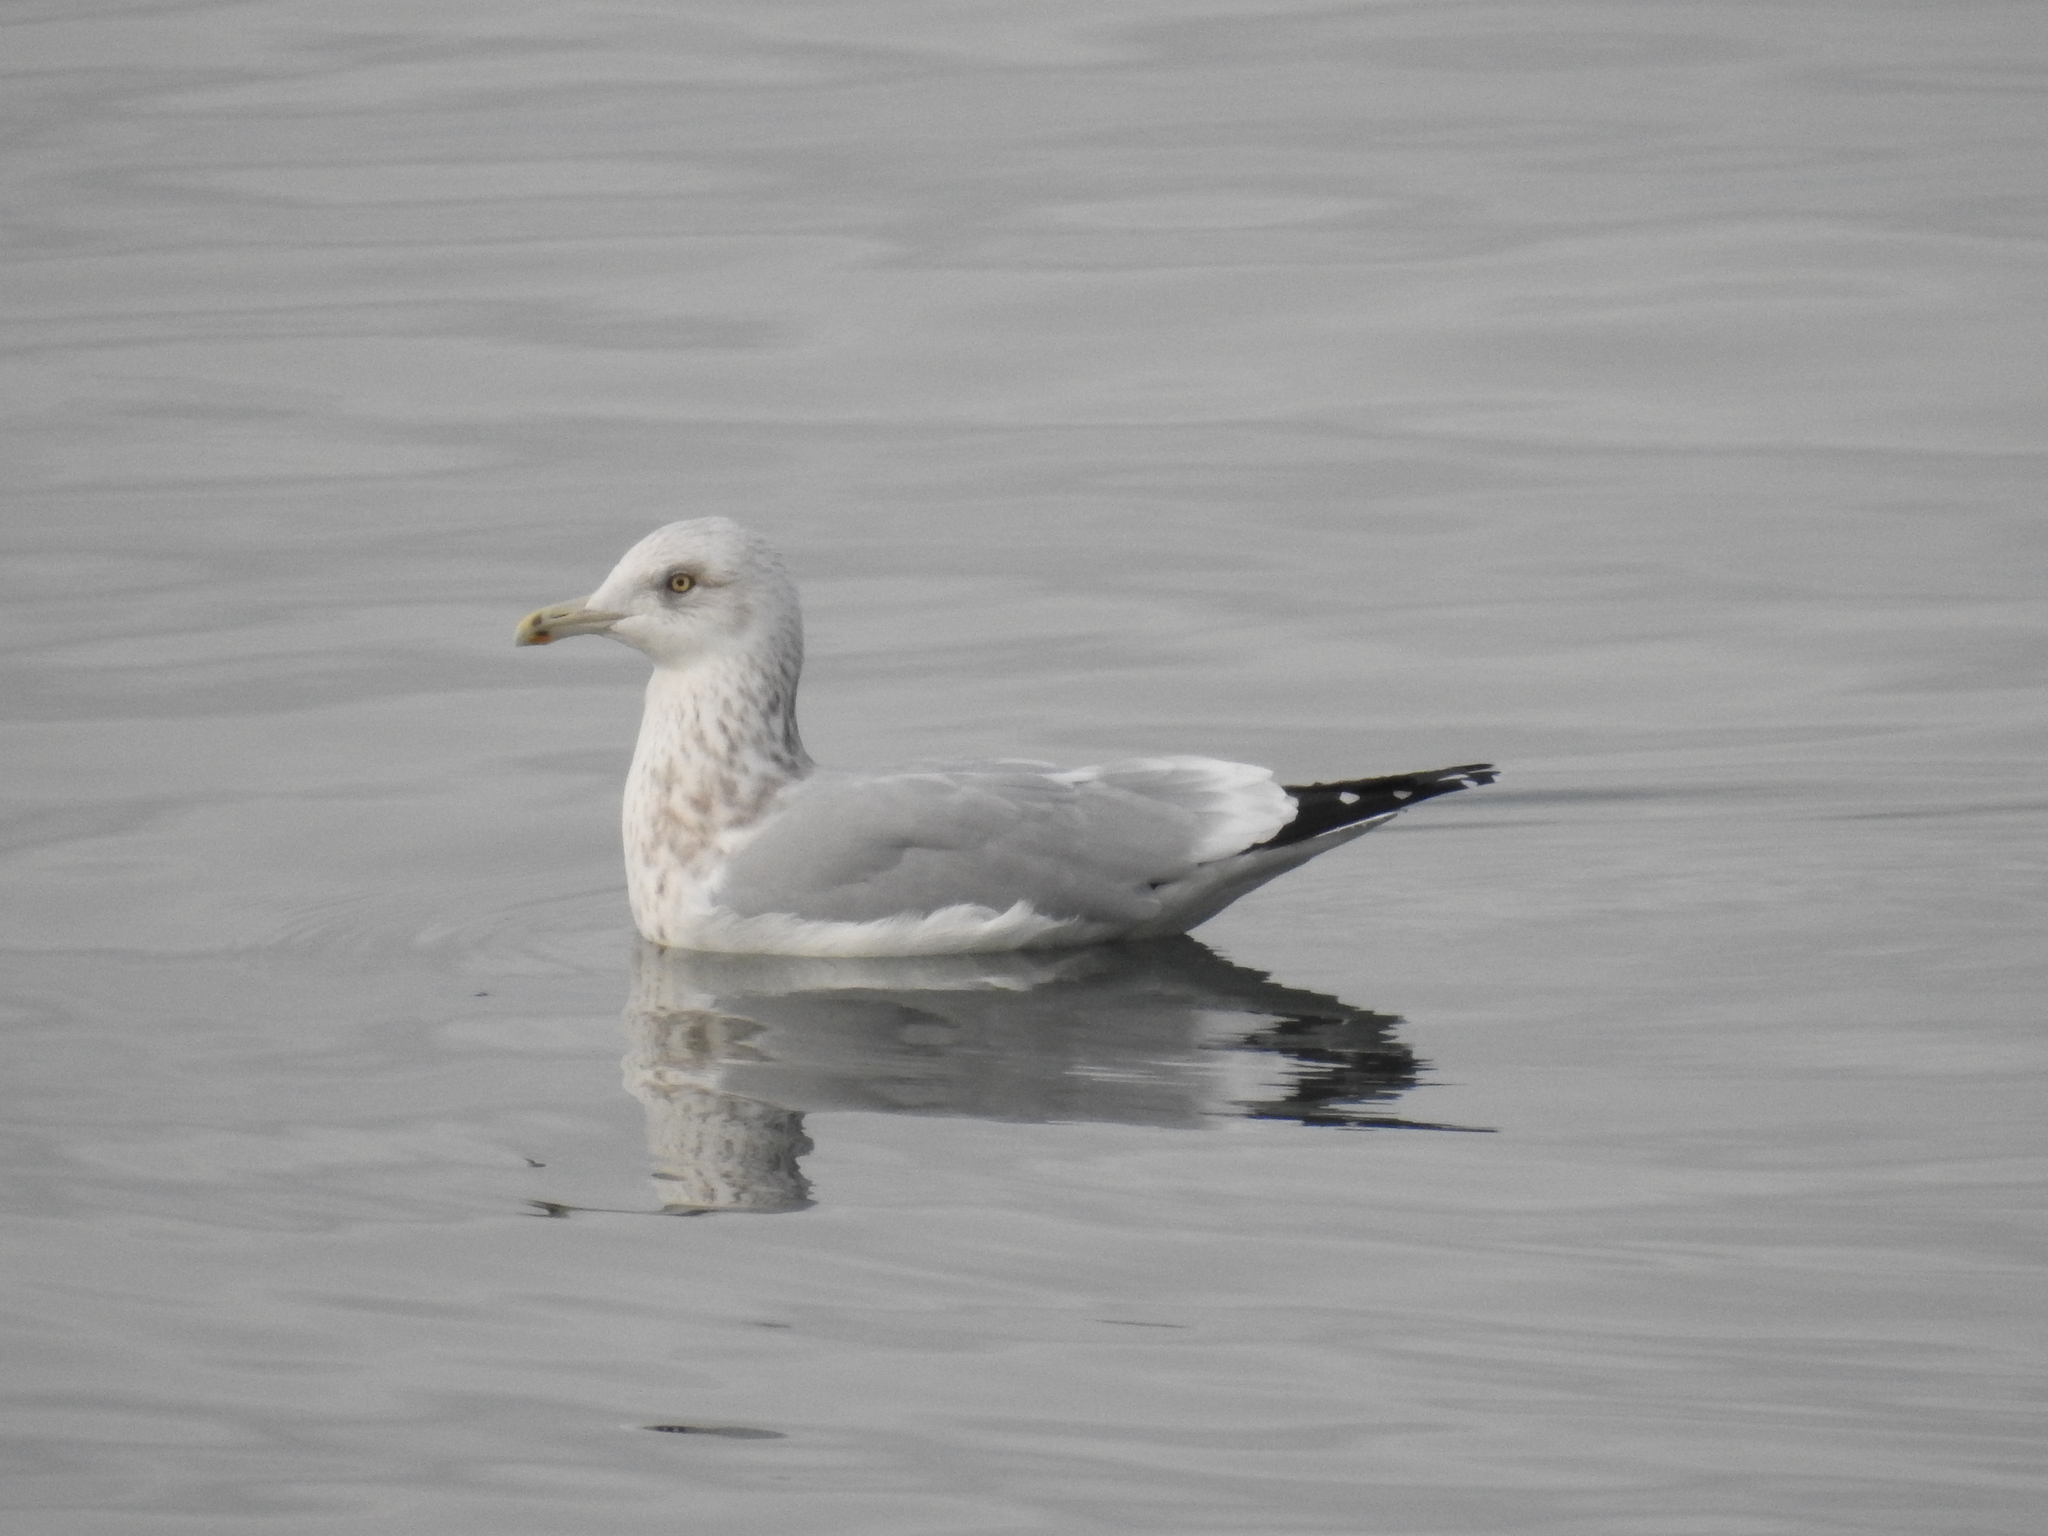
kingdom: Animalia
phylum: Chordata
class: Aves
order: Charadriiformes
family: Laridae
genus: Larus
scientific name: Larus argentatus
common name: Herring gull
